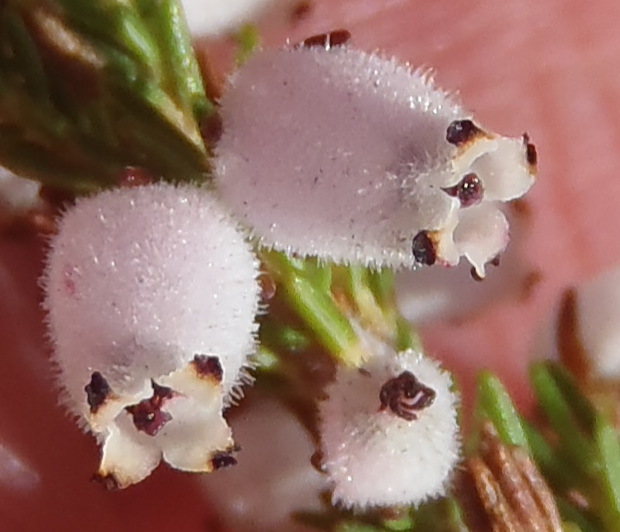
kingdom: Plantae
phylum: Tracheophyta
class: Magnoliopsida
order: Ericales
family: Ericaceae
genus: Erica
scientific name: Erica pubigera
